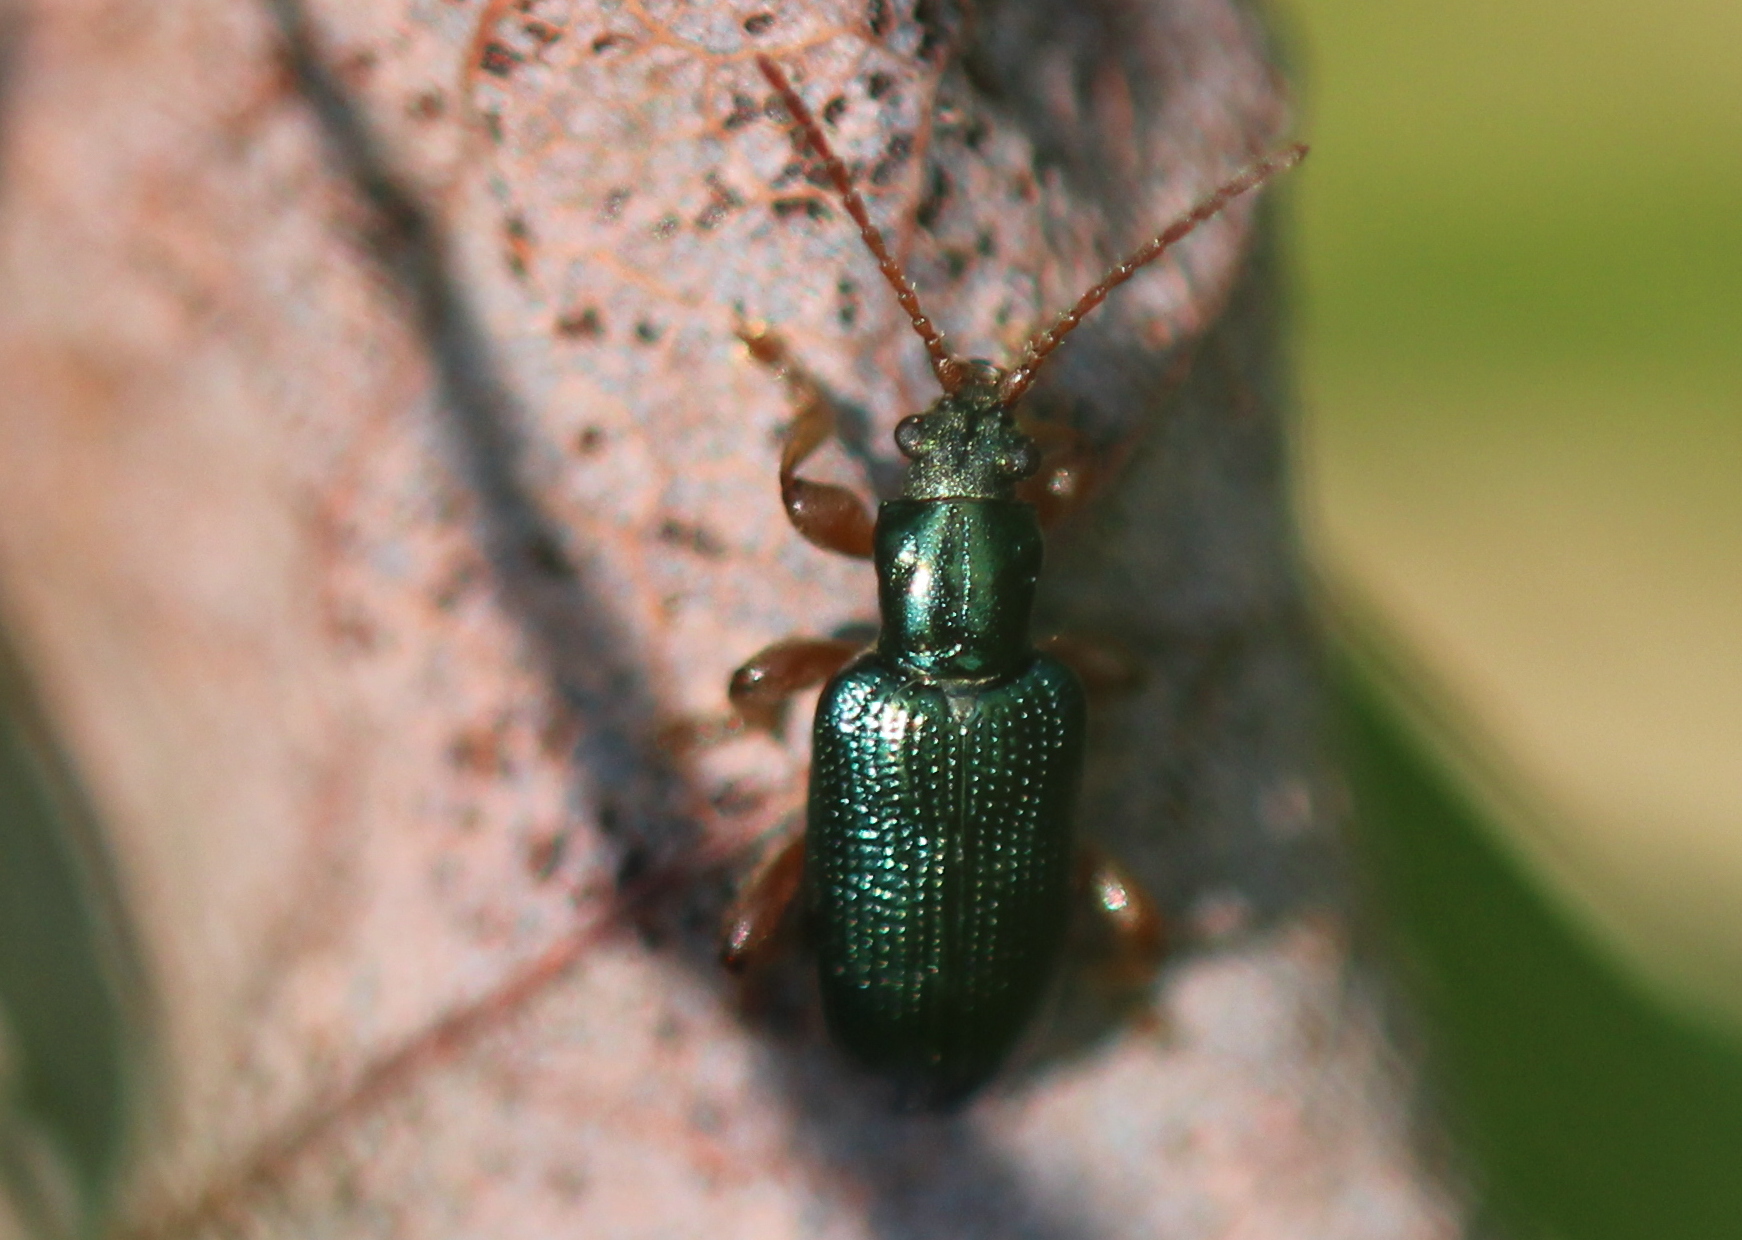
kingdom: Animalia
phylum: Arthropoda
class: Insecta
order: Coleoptera
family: Chrysomelidae
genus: Plateumaris
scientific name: Plateumaris rufa
